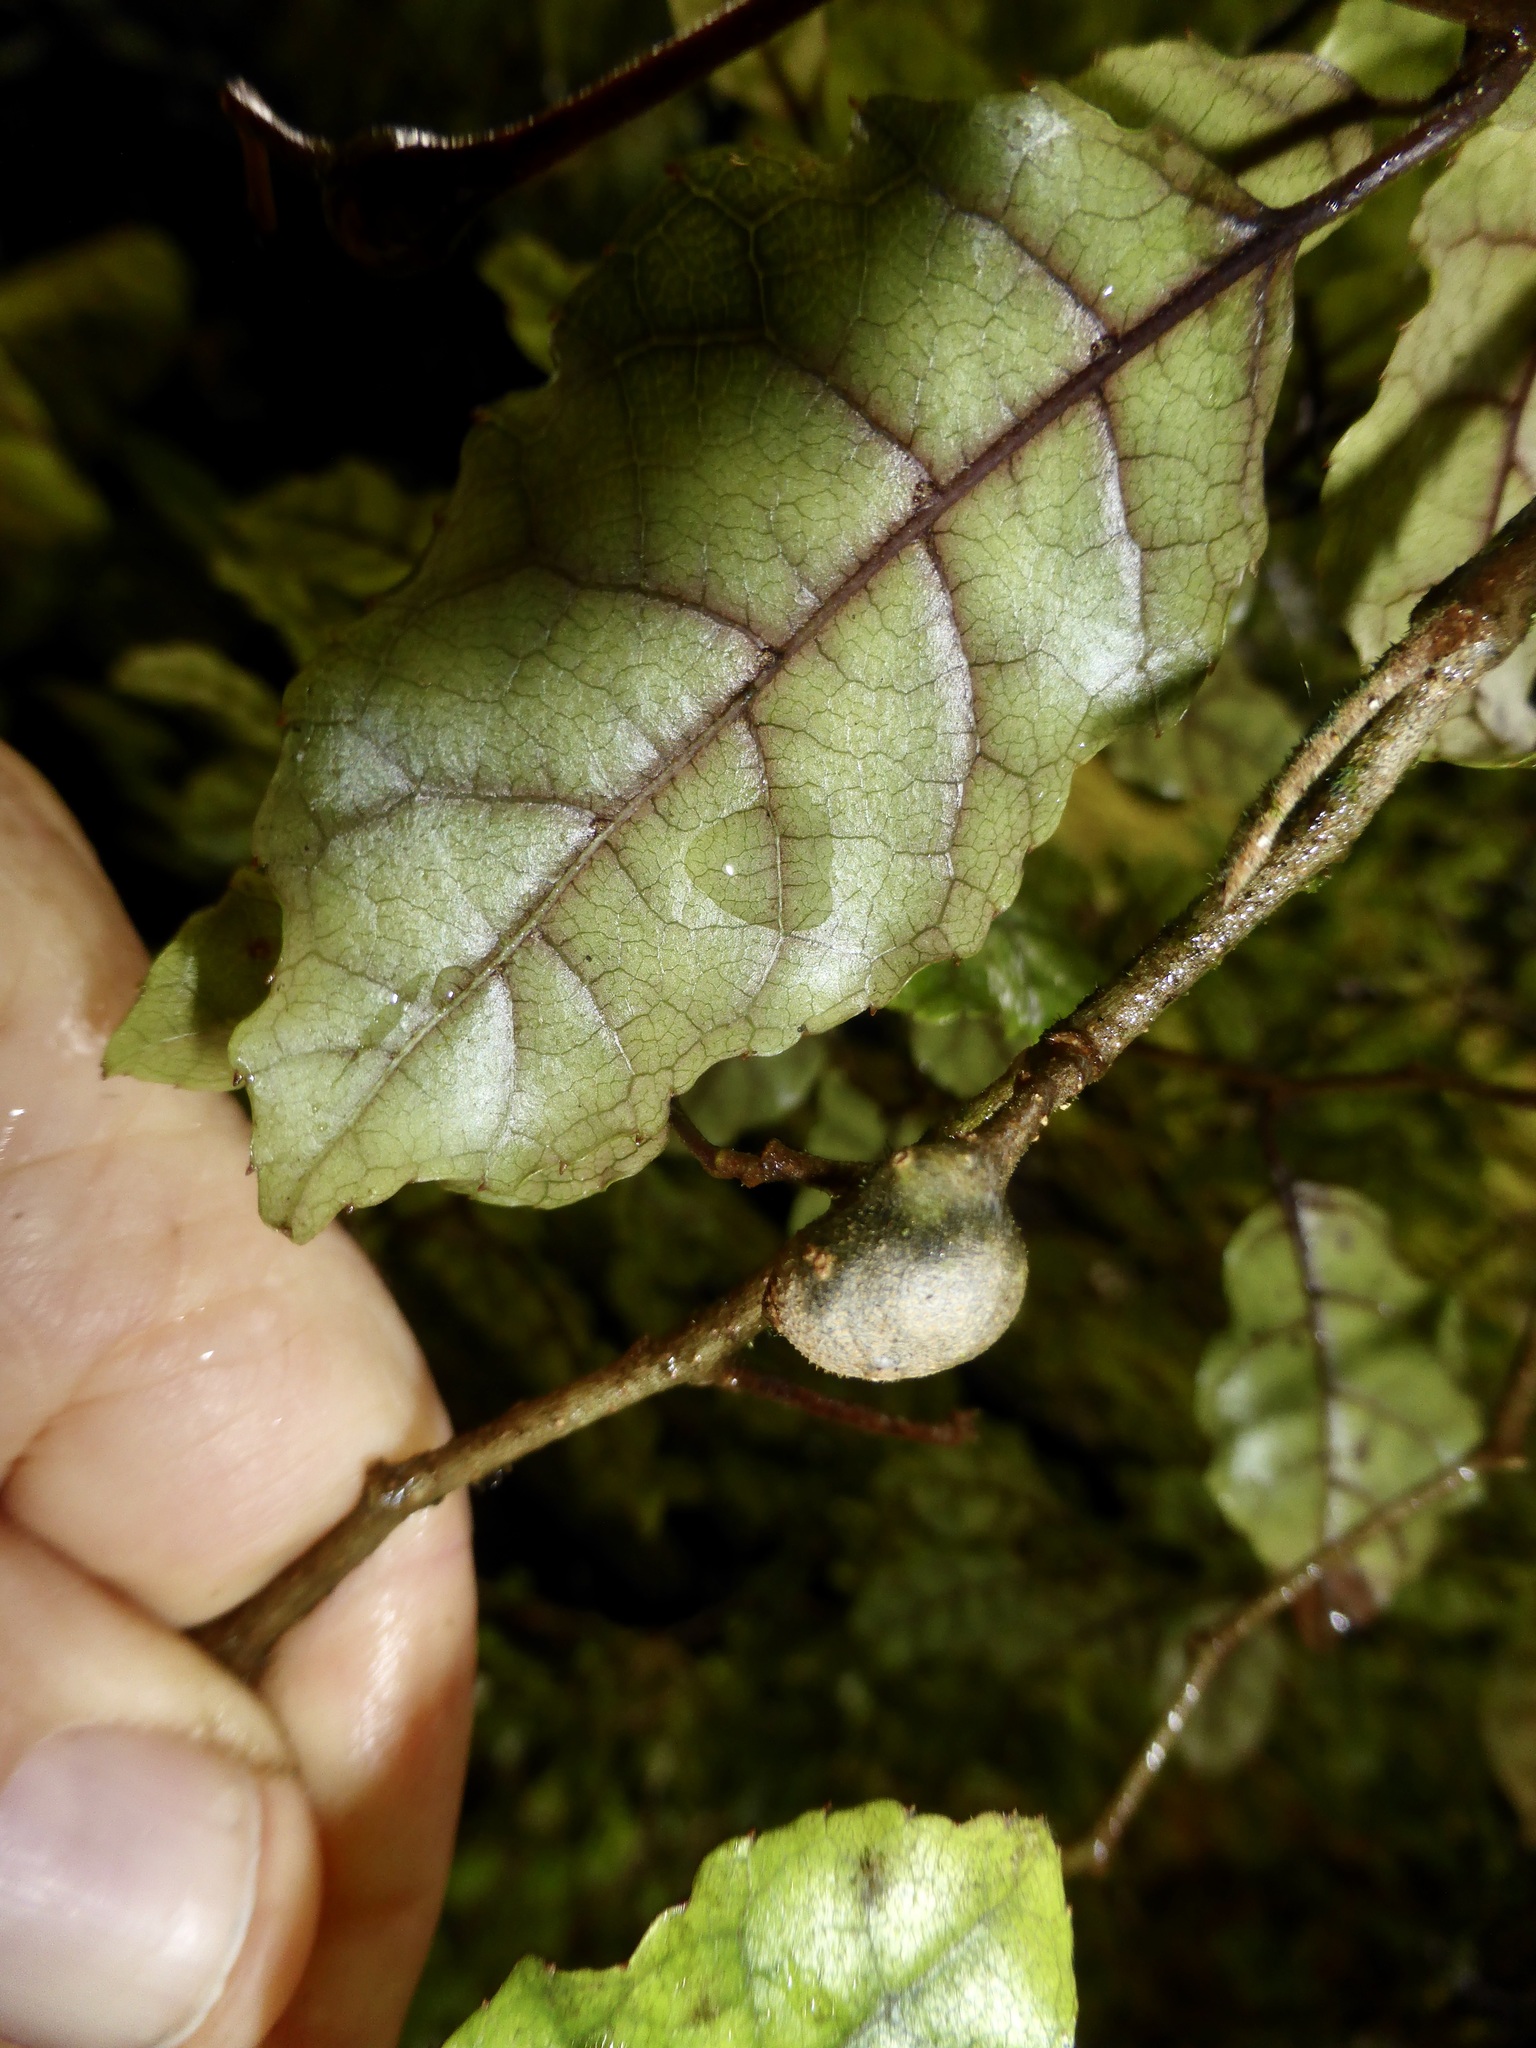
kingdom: Plantae
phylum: Tracheophyta
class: Magnoliopsida
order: Asterales
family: Rousseaceae
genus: Carpodetus
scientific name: Carpodetus serratus
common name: White mapau
